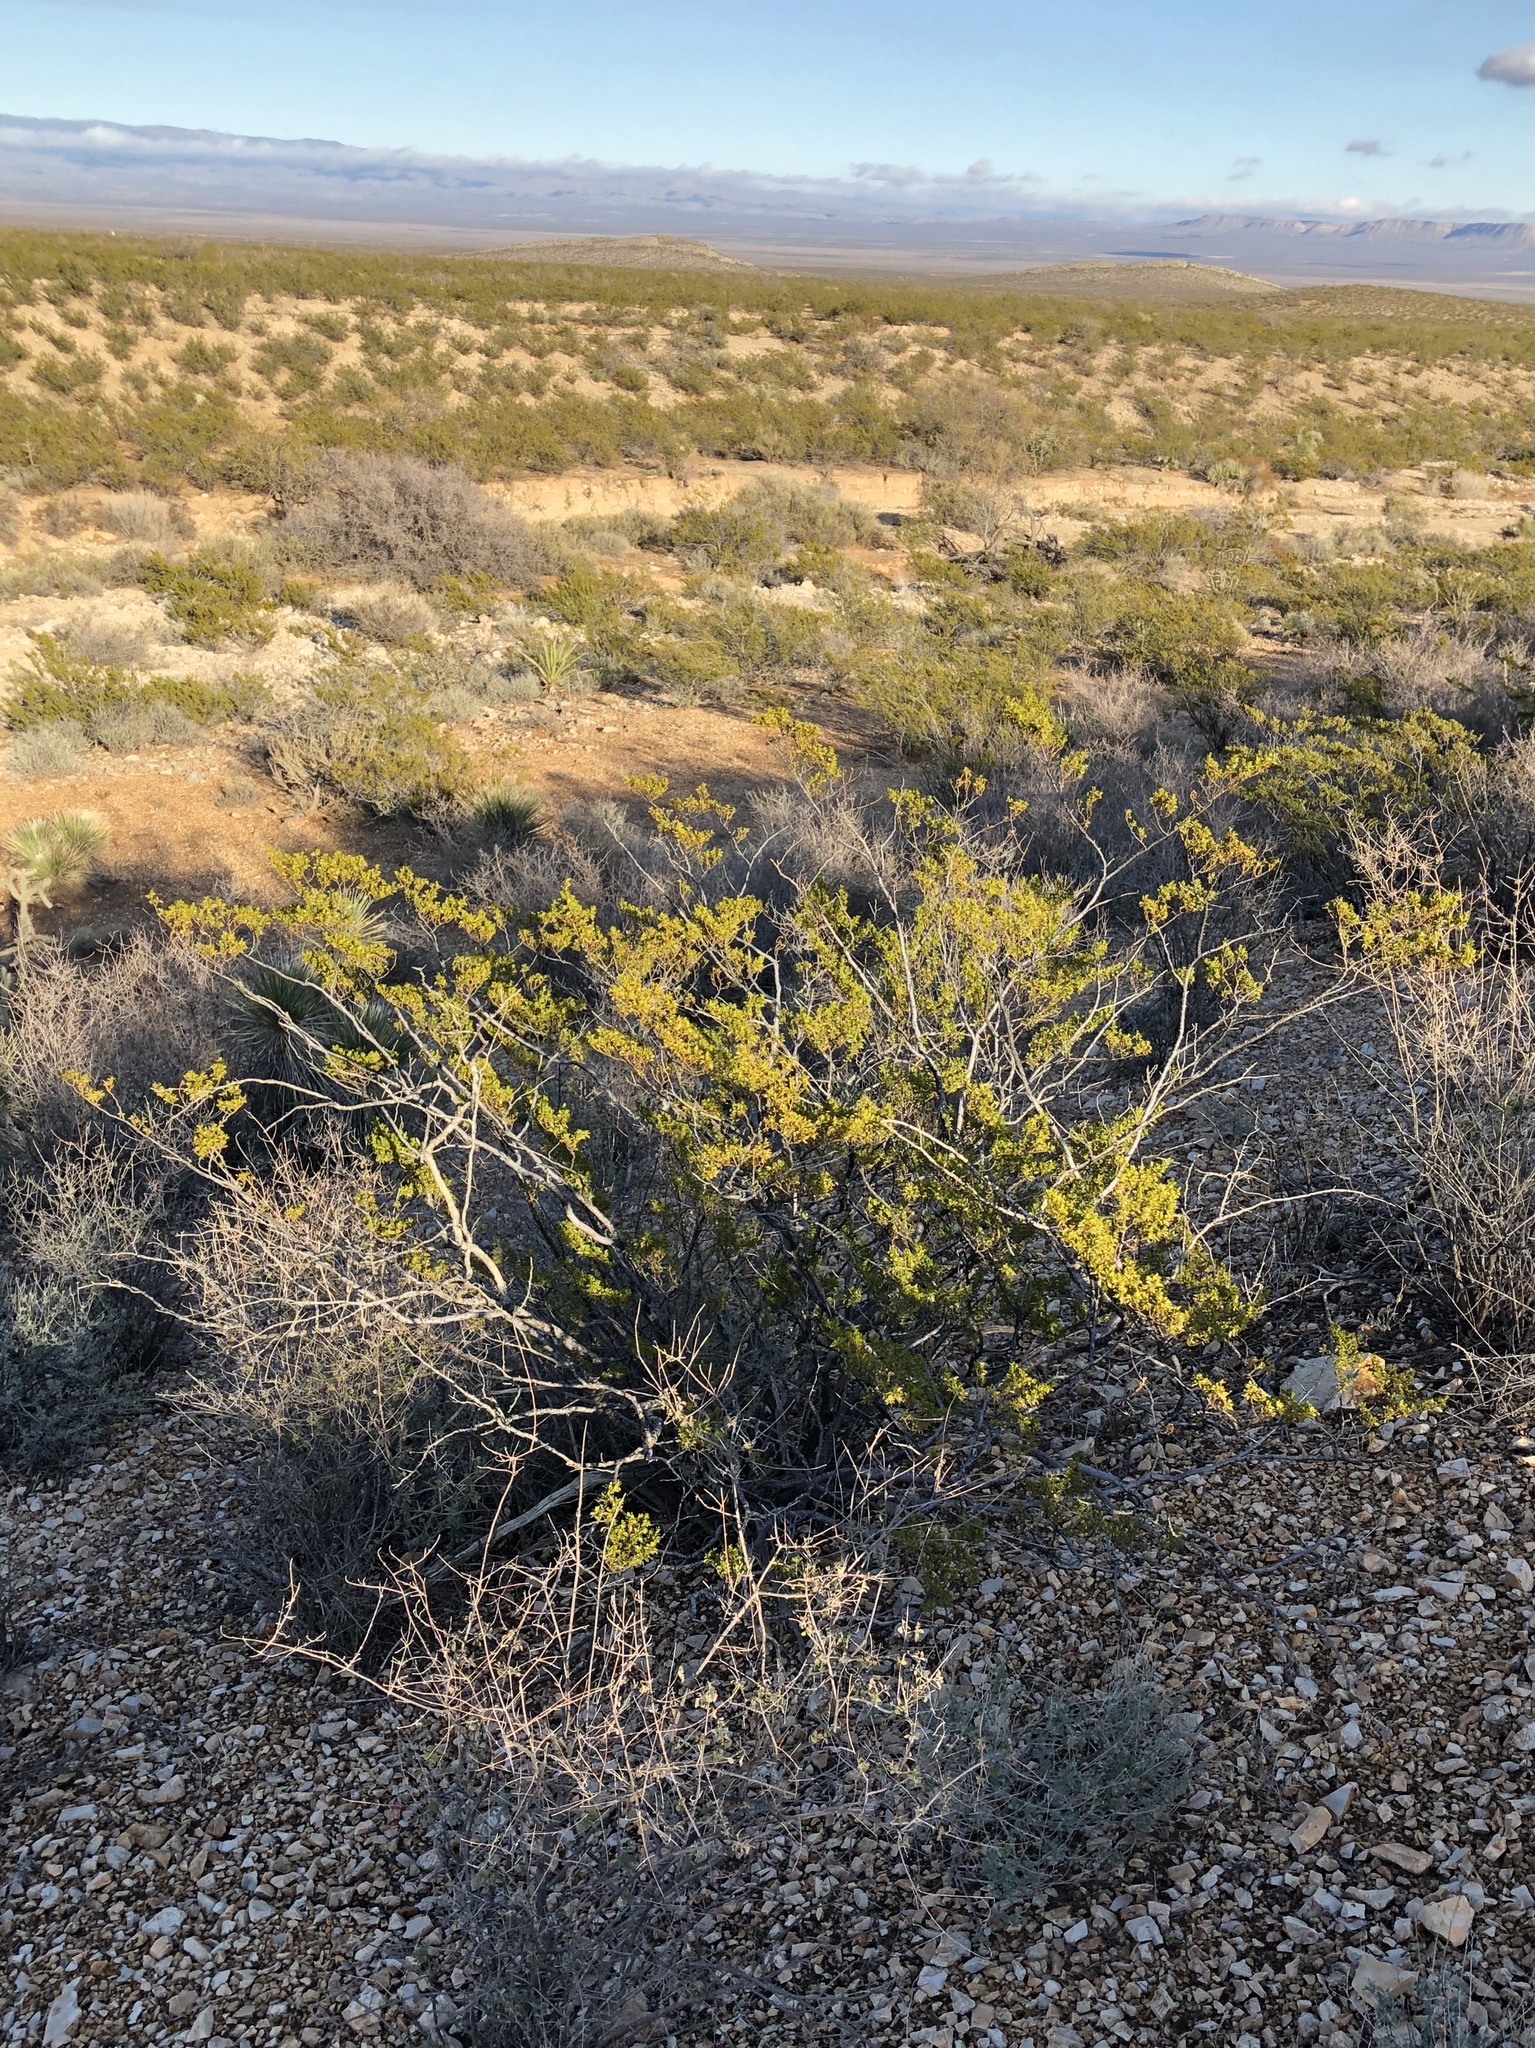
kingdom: Plantae
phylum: Tracheophyta
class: Magnoliopsida
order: Zygophyllales
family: Zygophyllaceae
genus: Larrea
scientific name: Larrea tridentata
